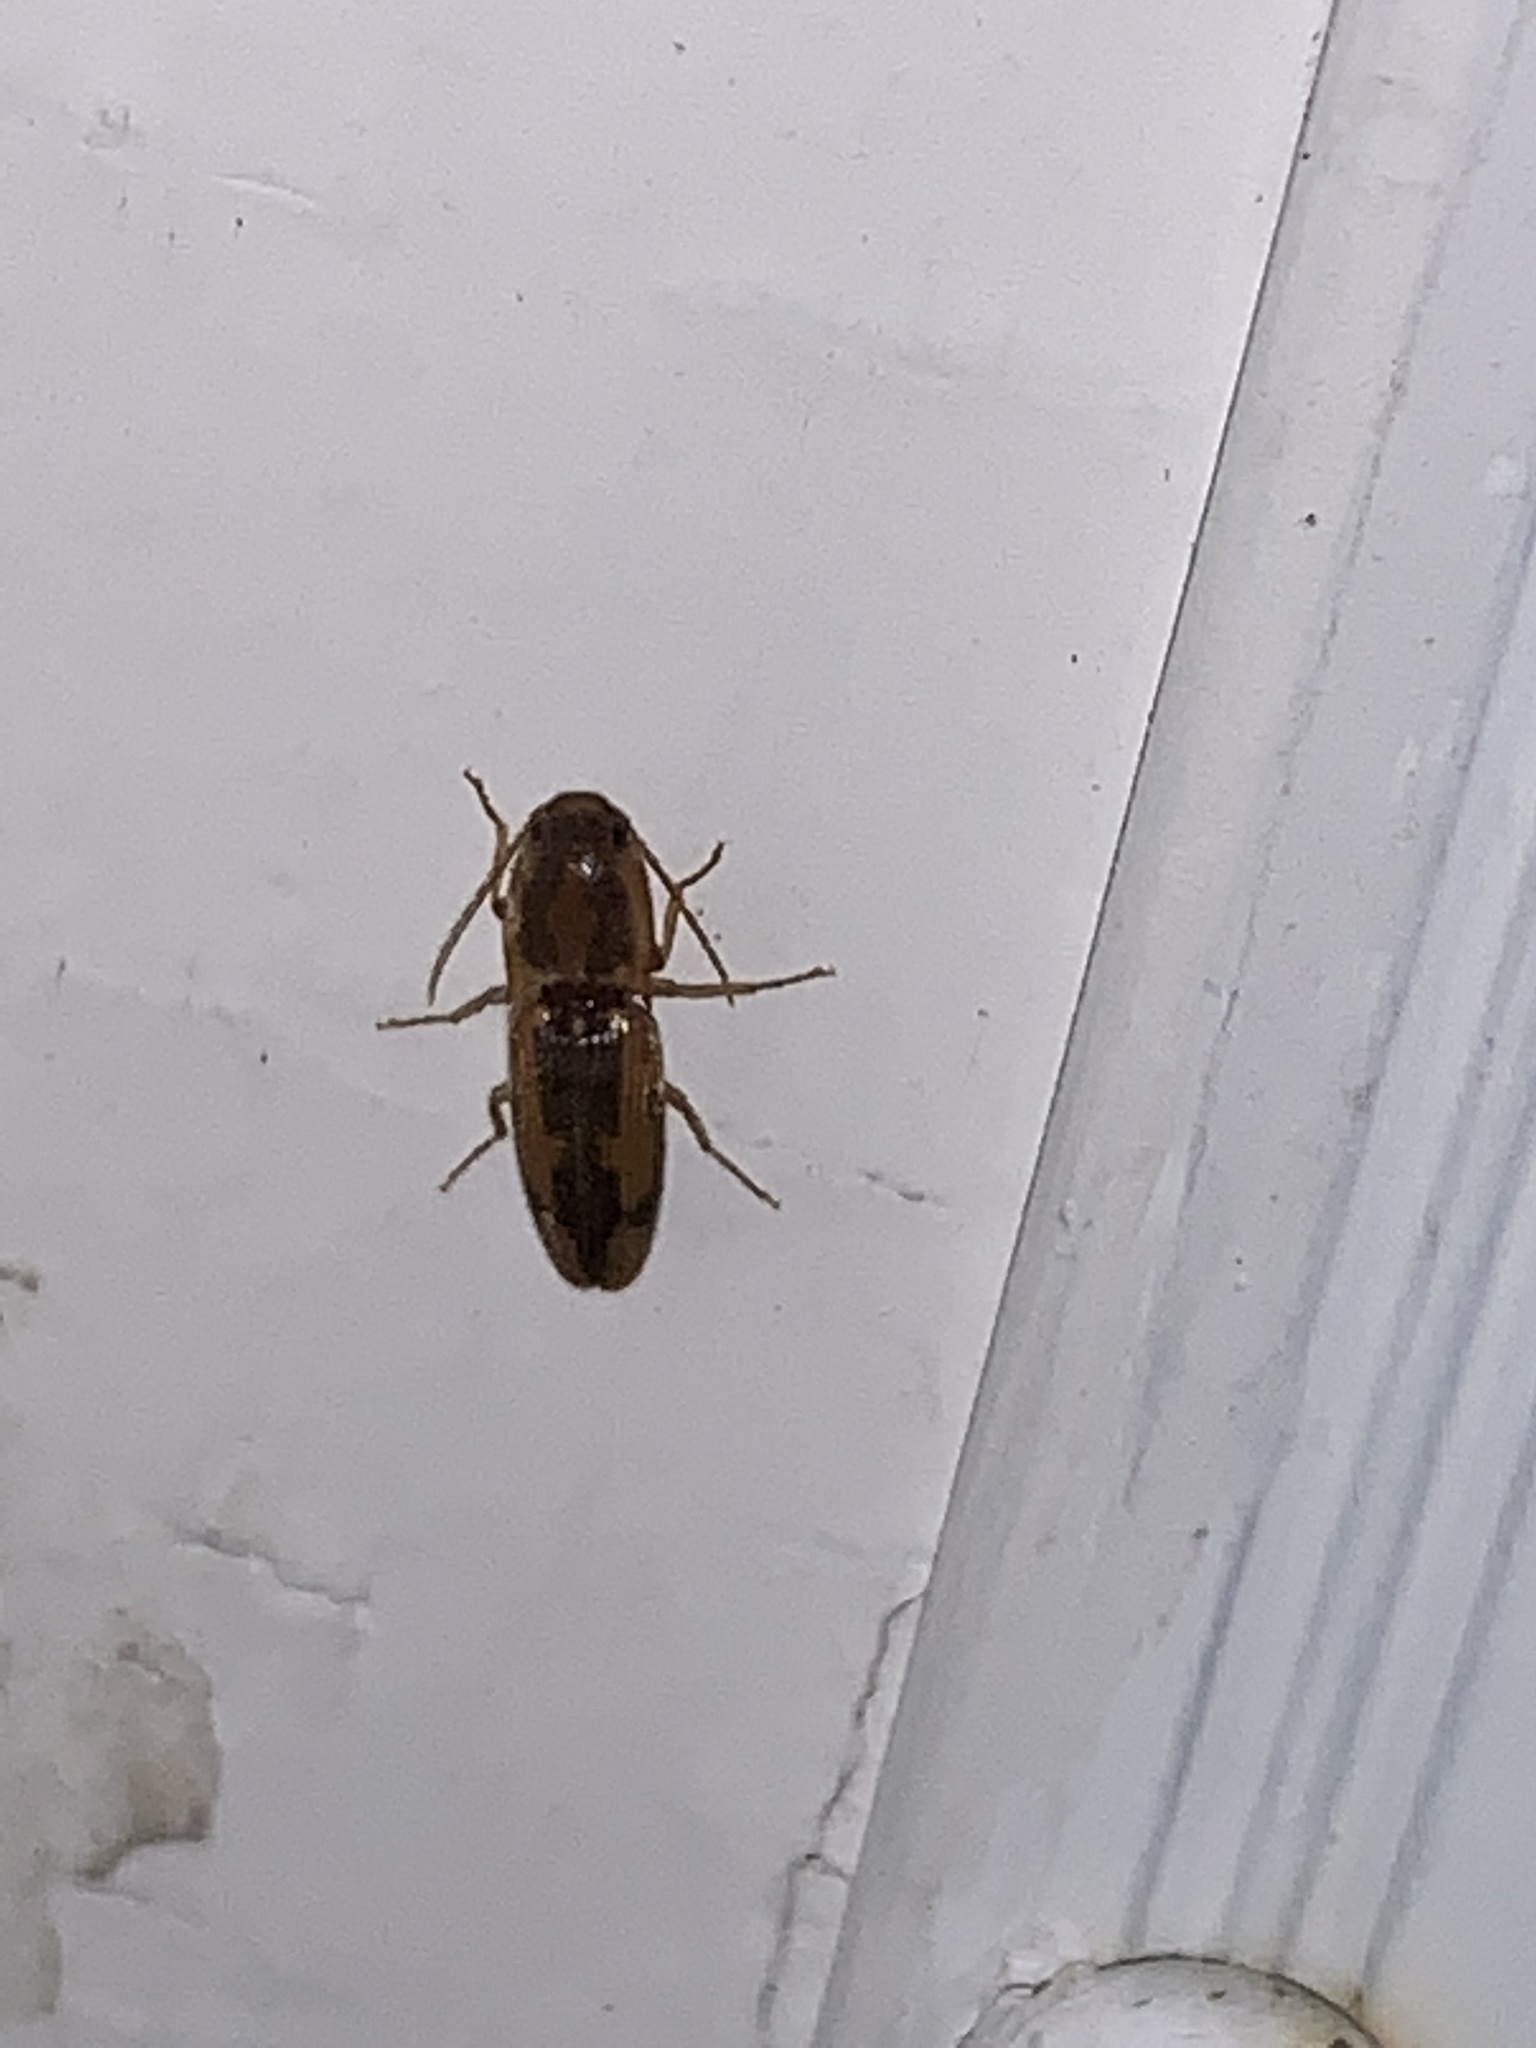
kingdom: Animalia
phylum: Arthropoda
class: Insecta
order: Coleoptera
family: Elateridae
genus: Monocrepidius
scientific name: Monocrepidius
